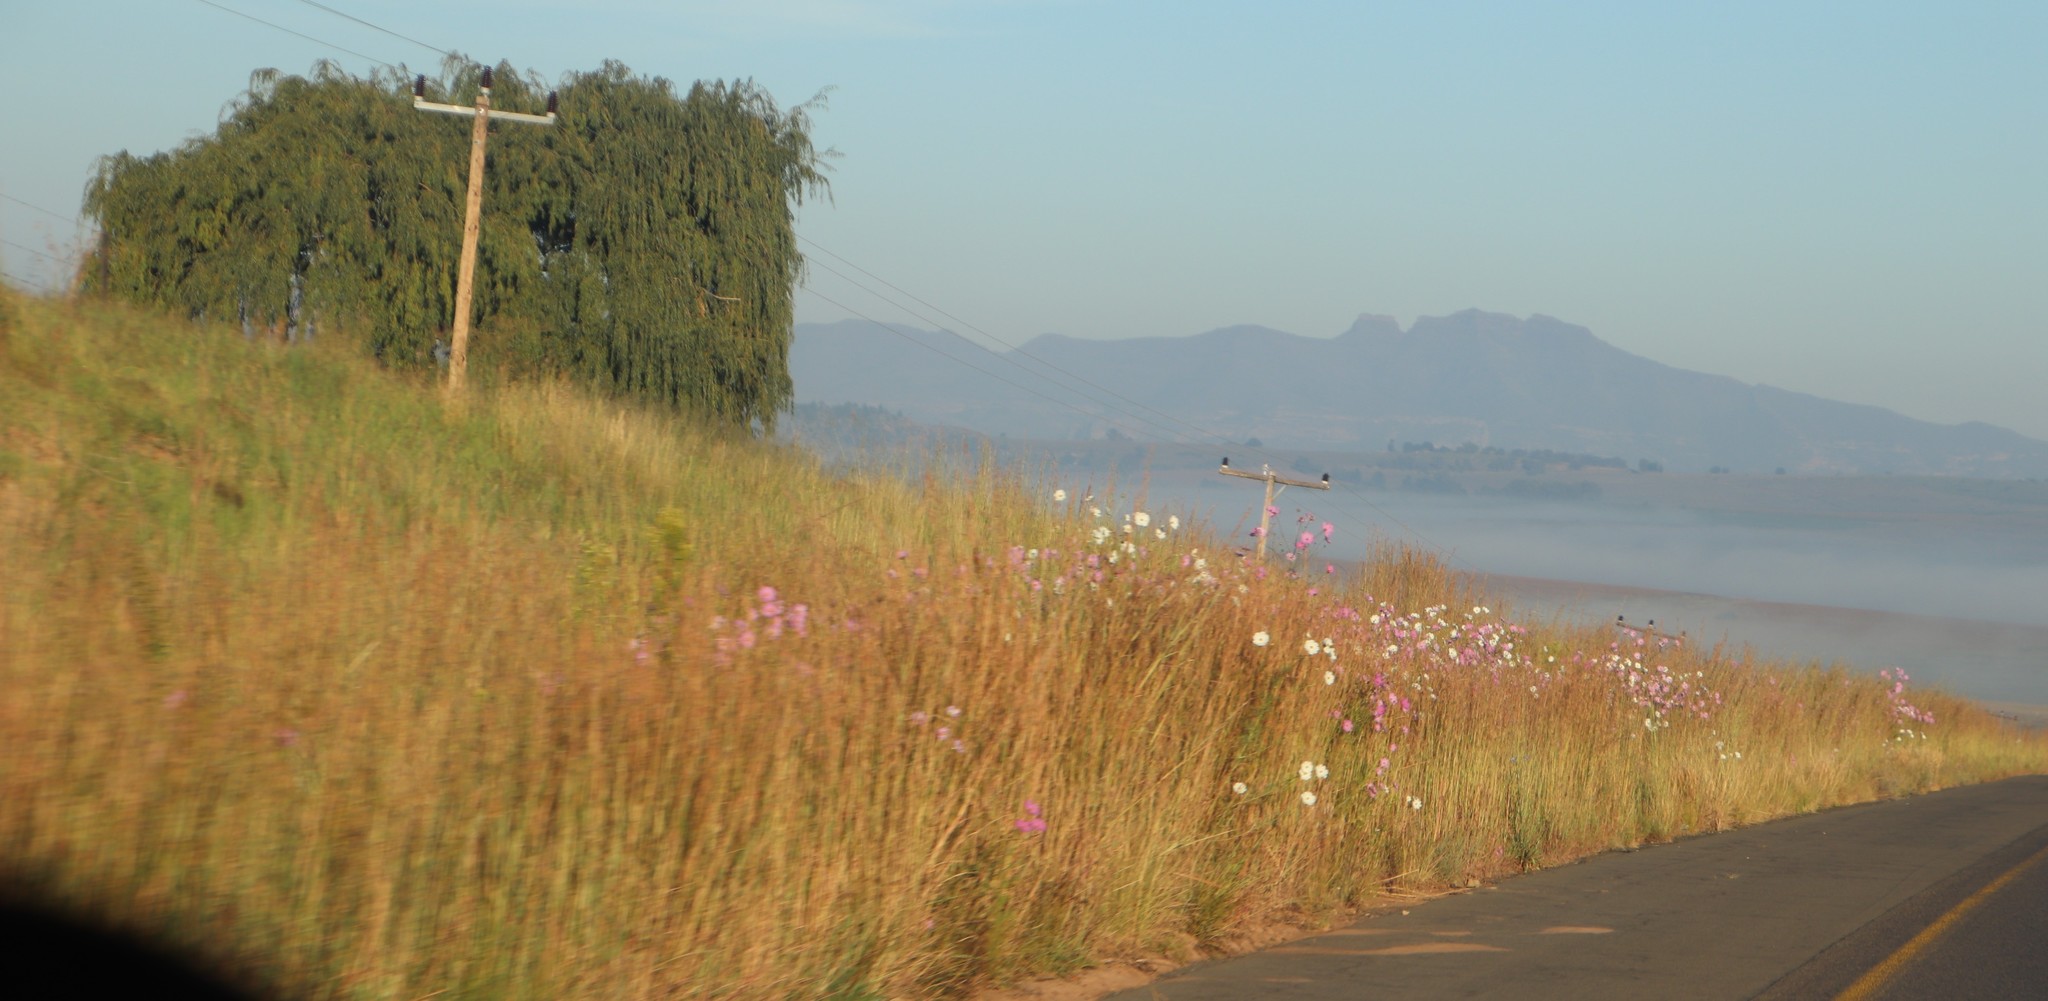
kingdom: Plantae
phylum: Tracheophyta
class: Magnoliopsida
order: Asterales
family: Asteraceae
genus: Cosmos
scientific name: Cosmos bipinnatus
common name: Garden cosmos
